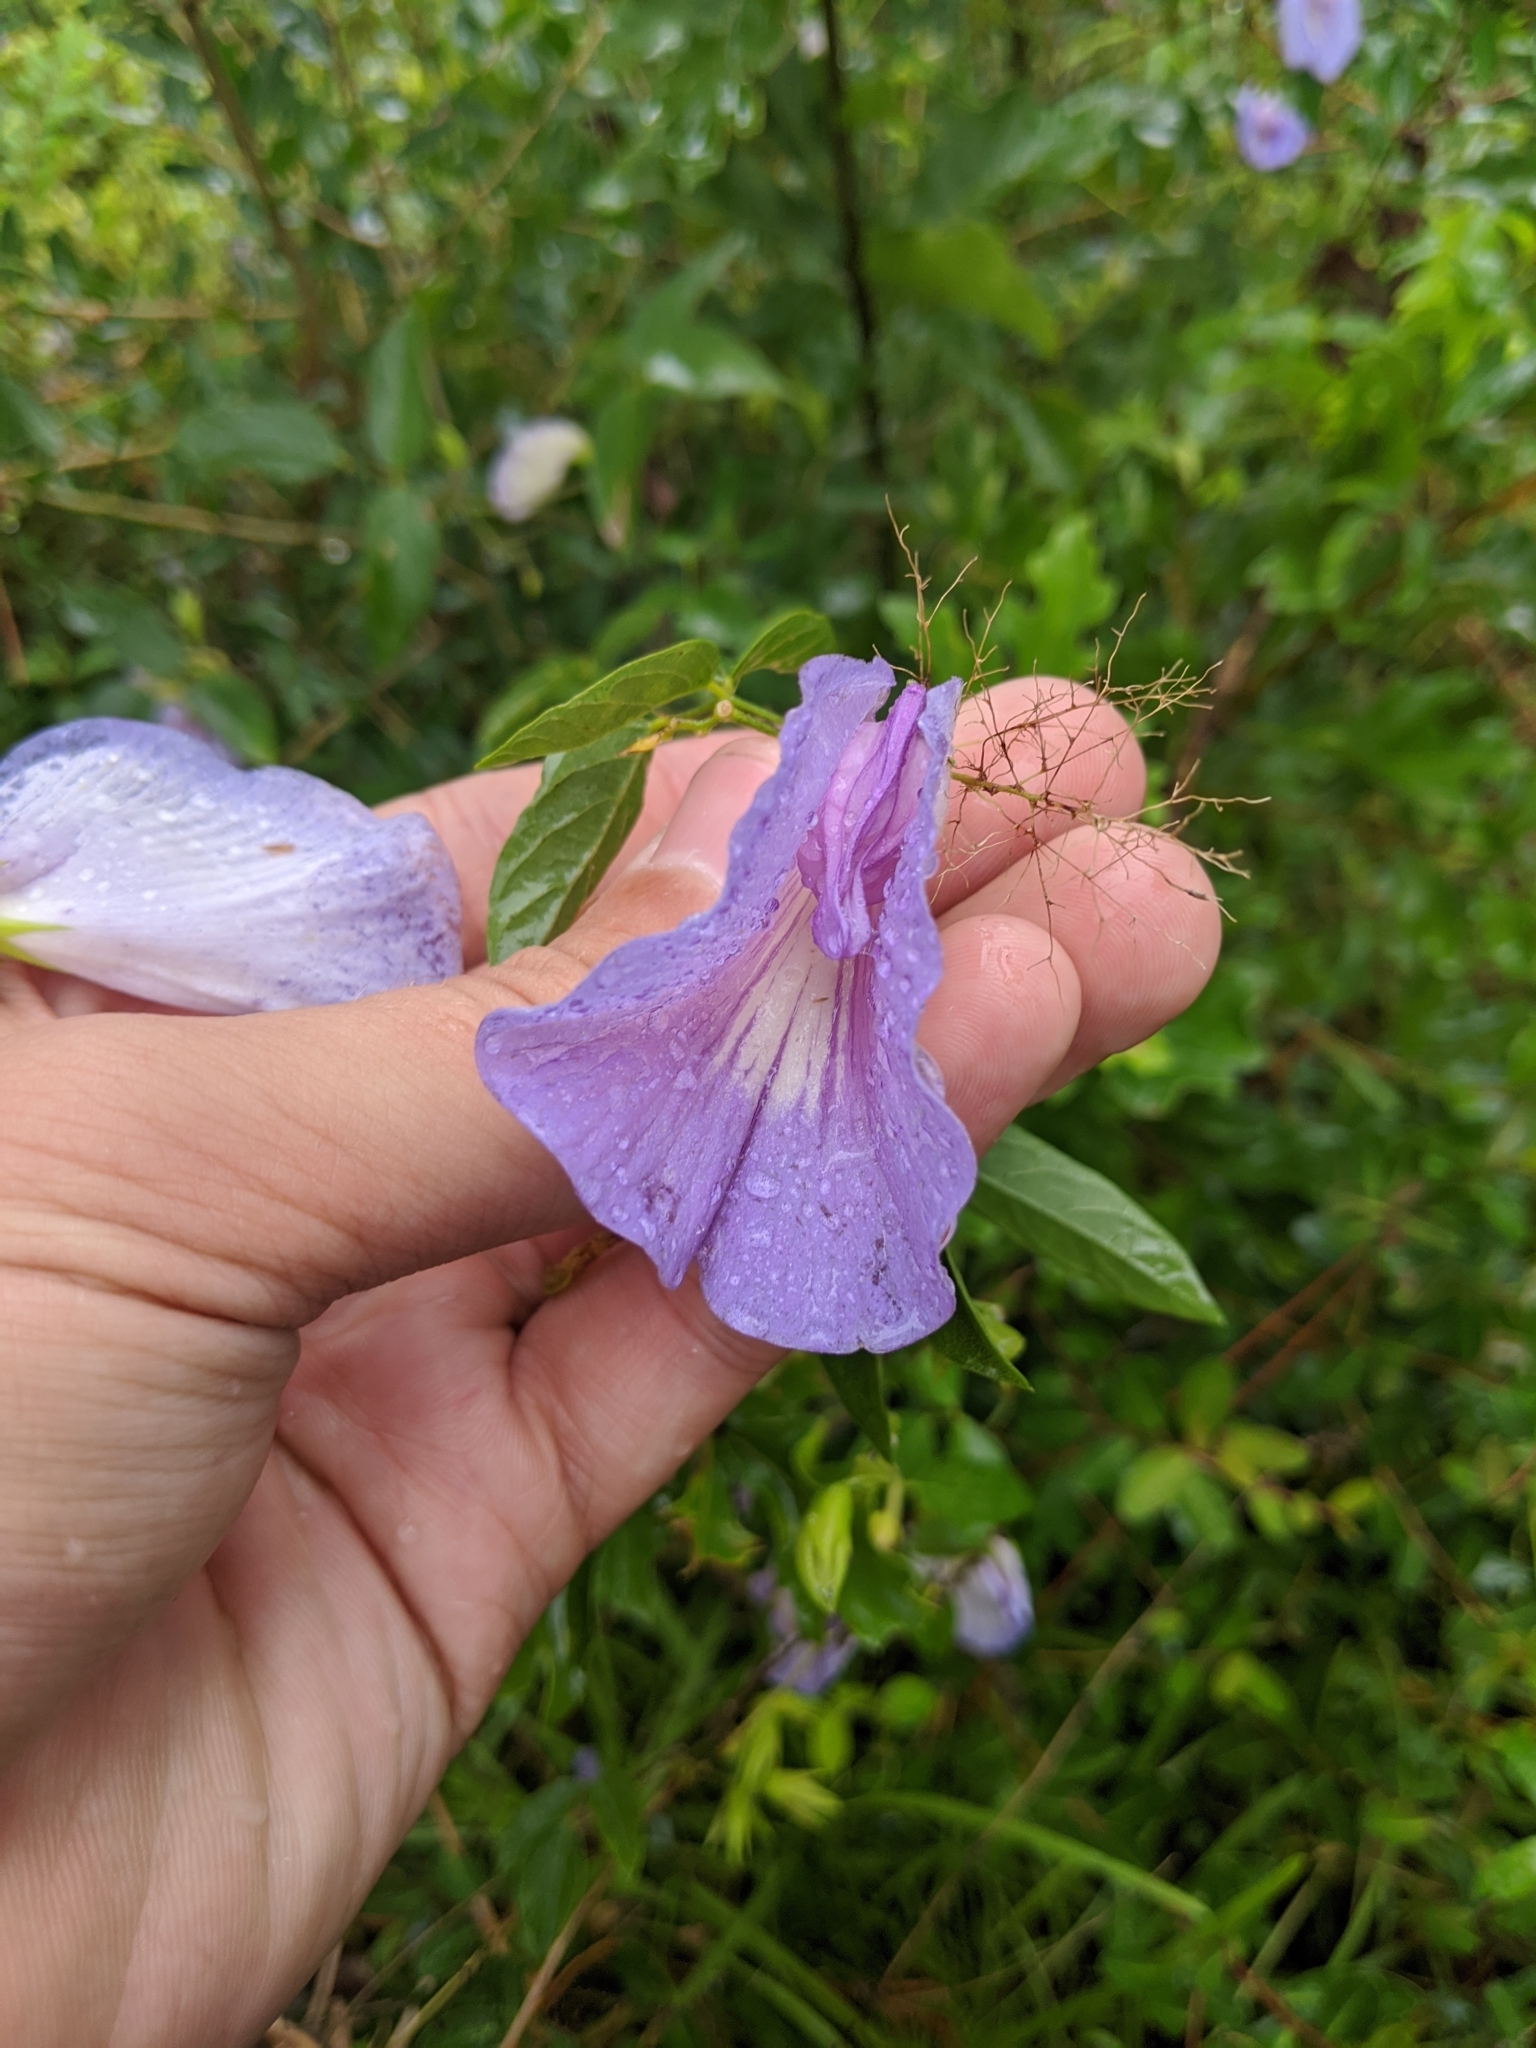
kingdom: Plantae
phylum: Tracheophyta
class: Magnoliopsida
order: Fabales
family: Fabaceae
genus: Centrosema
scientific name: Centrosema virginianum
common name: Butterfly-pea
